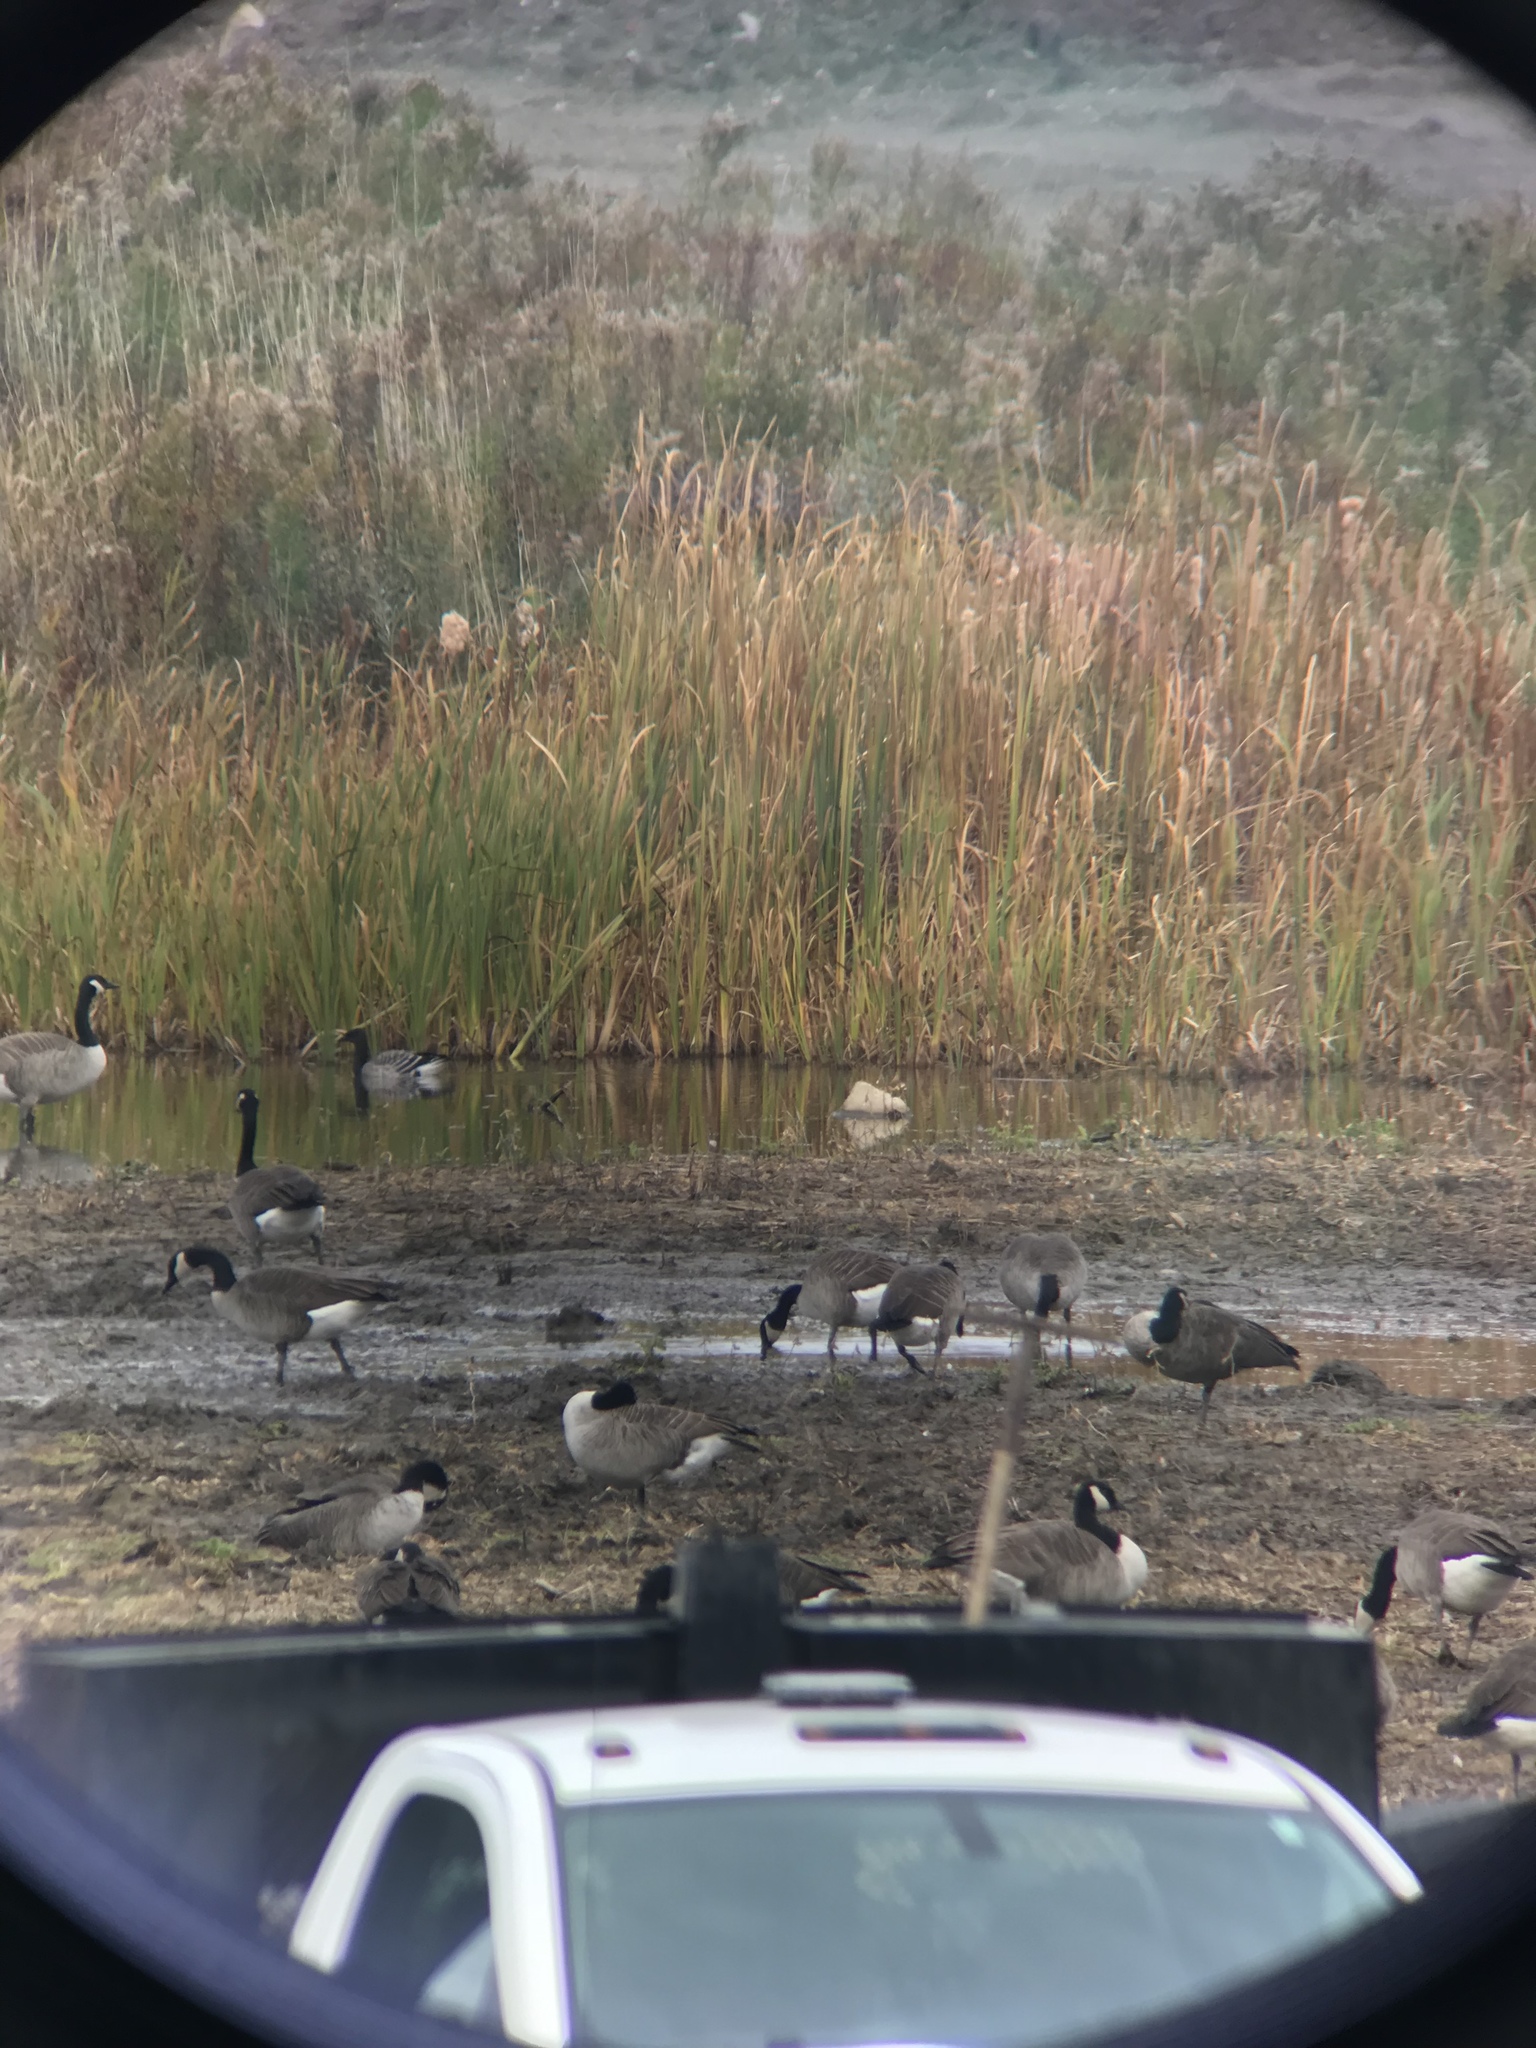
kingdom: Animalia
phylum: Chordata
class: Aves
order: Anseriformes
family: Anatidae
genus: Branta
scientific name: Branta bernicla
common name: Brant goose
